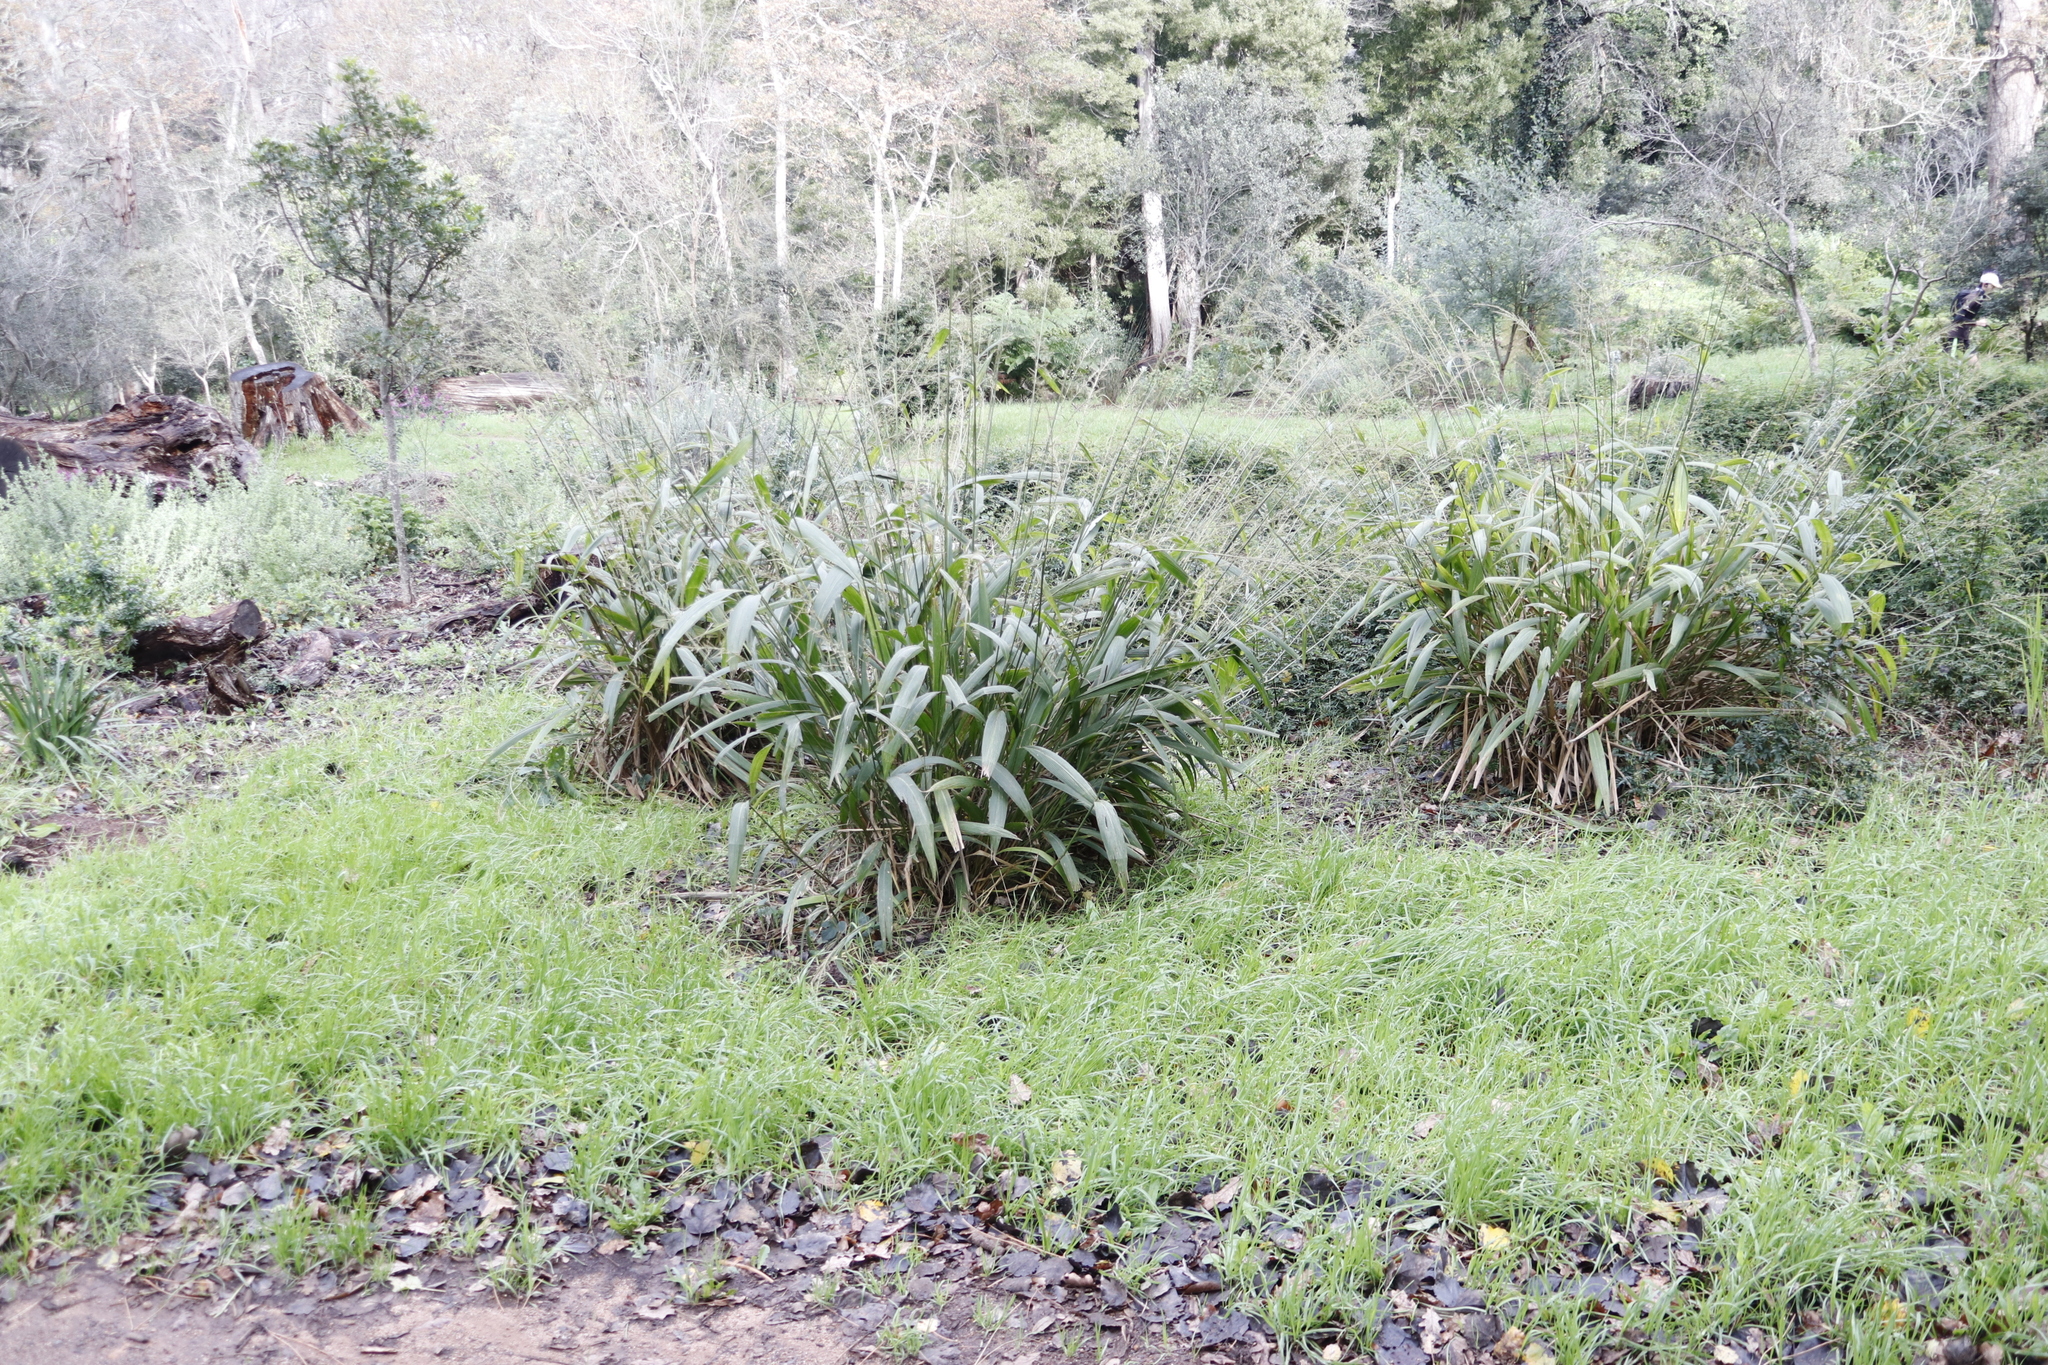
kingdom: Plantae
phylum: Tracheophyta
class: Liliopsida
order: Poales
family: Poaceae
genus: Setaria
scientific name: Setaria megaphylla
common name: Bigleaf bristlegrass
